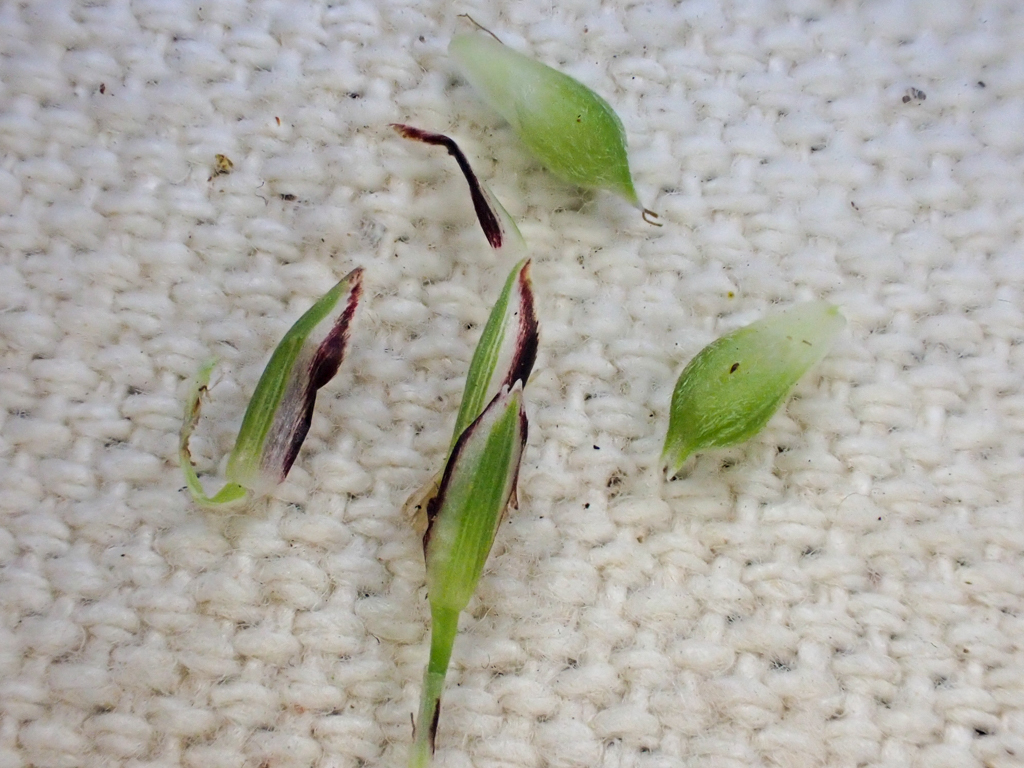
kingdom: Plantae
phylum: Tracheophyta
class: Liliopsida
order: Poales
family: Cyperaceae
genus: Carex
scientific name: Carex globosa
